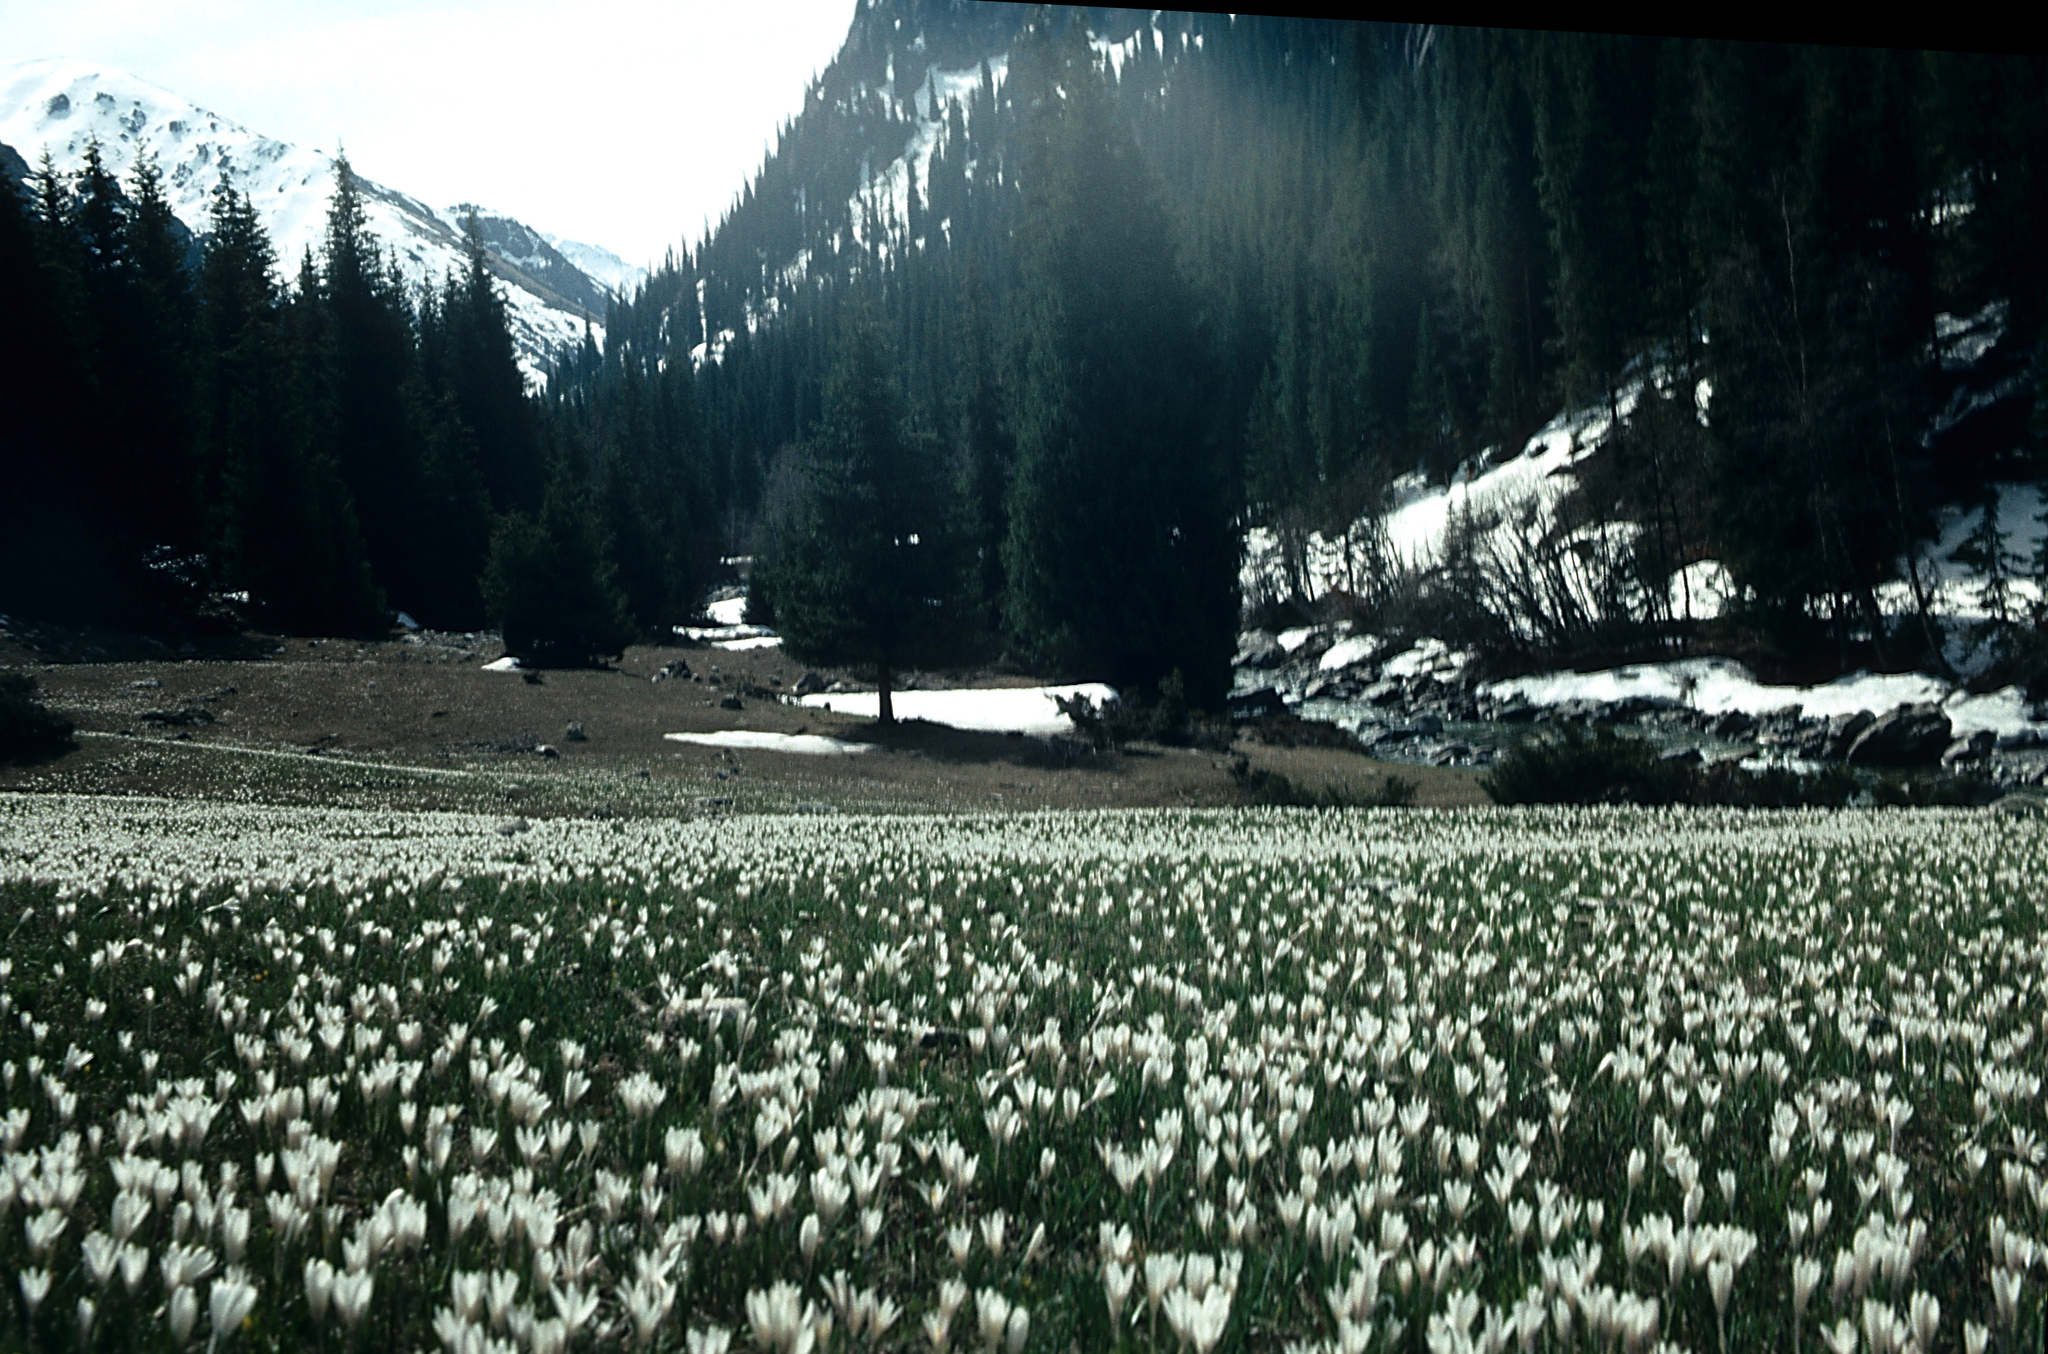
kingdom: Plantae
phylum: Tracheophyta
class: Liliopsida
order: Asparagales
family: Iridaceae
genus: Crocus
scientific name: Crocus alatavicus
